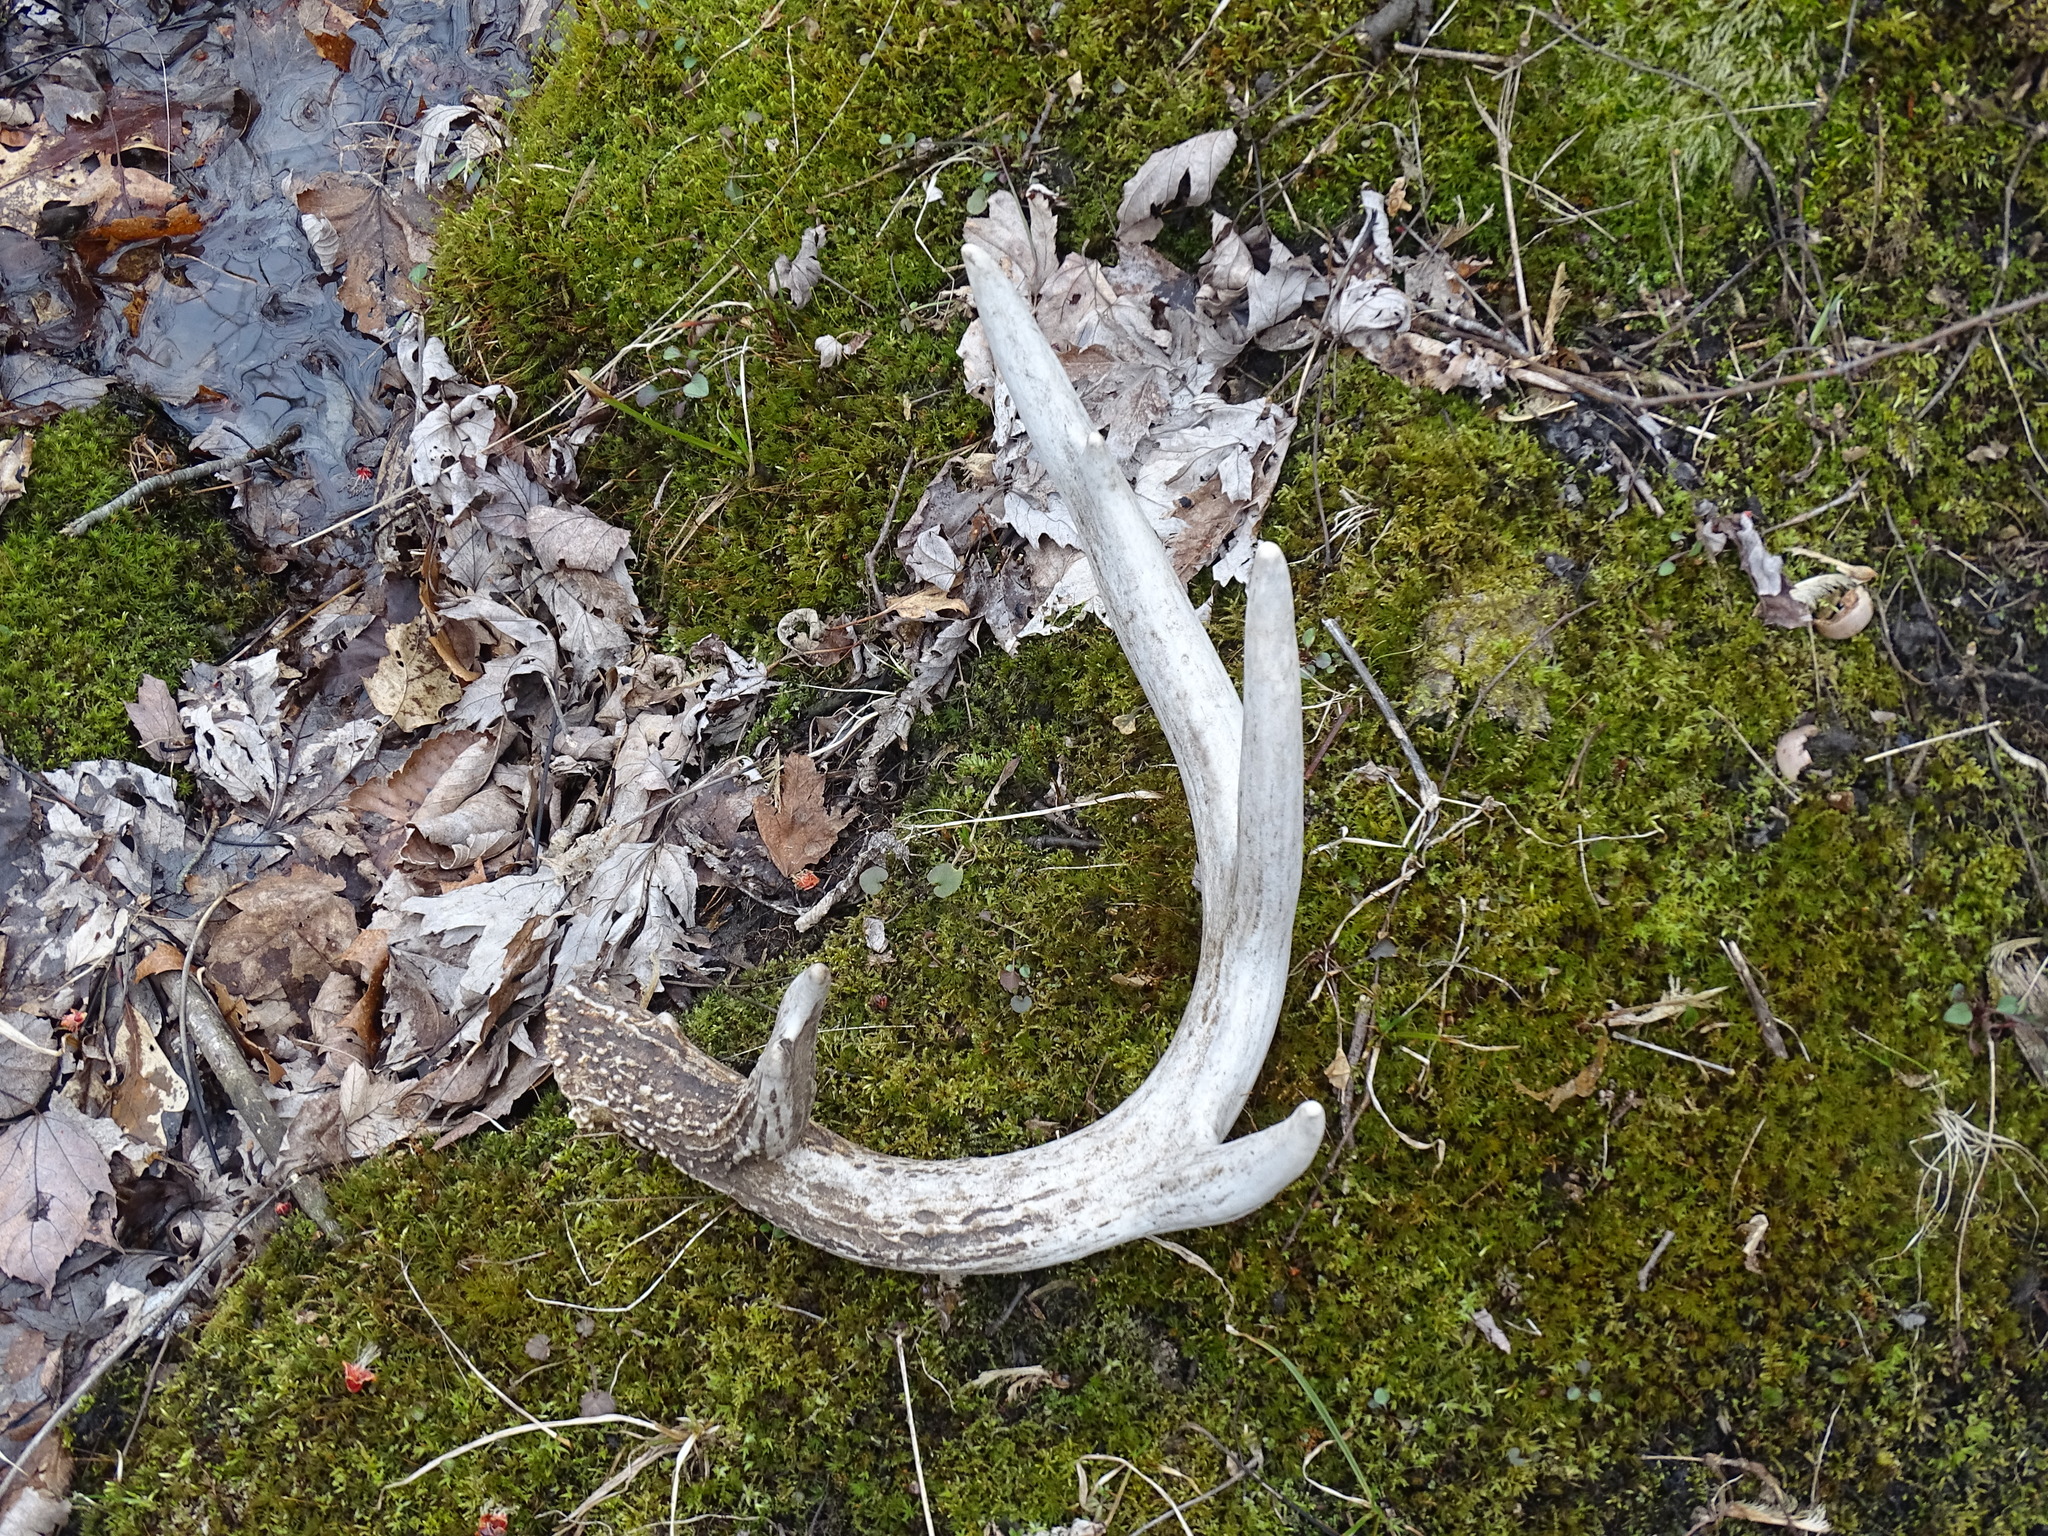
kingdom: Animalia
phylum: Chordata
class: Mammalia
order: Artiodactyla
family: Cervidae
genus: Odocoileus
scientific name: Odocoileus virginianus
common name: White-tailed deer
